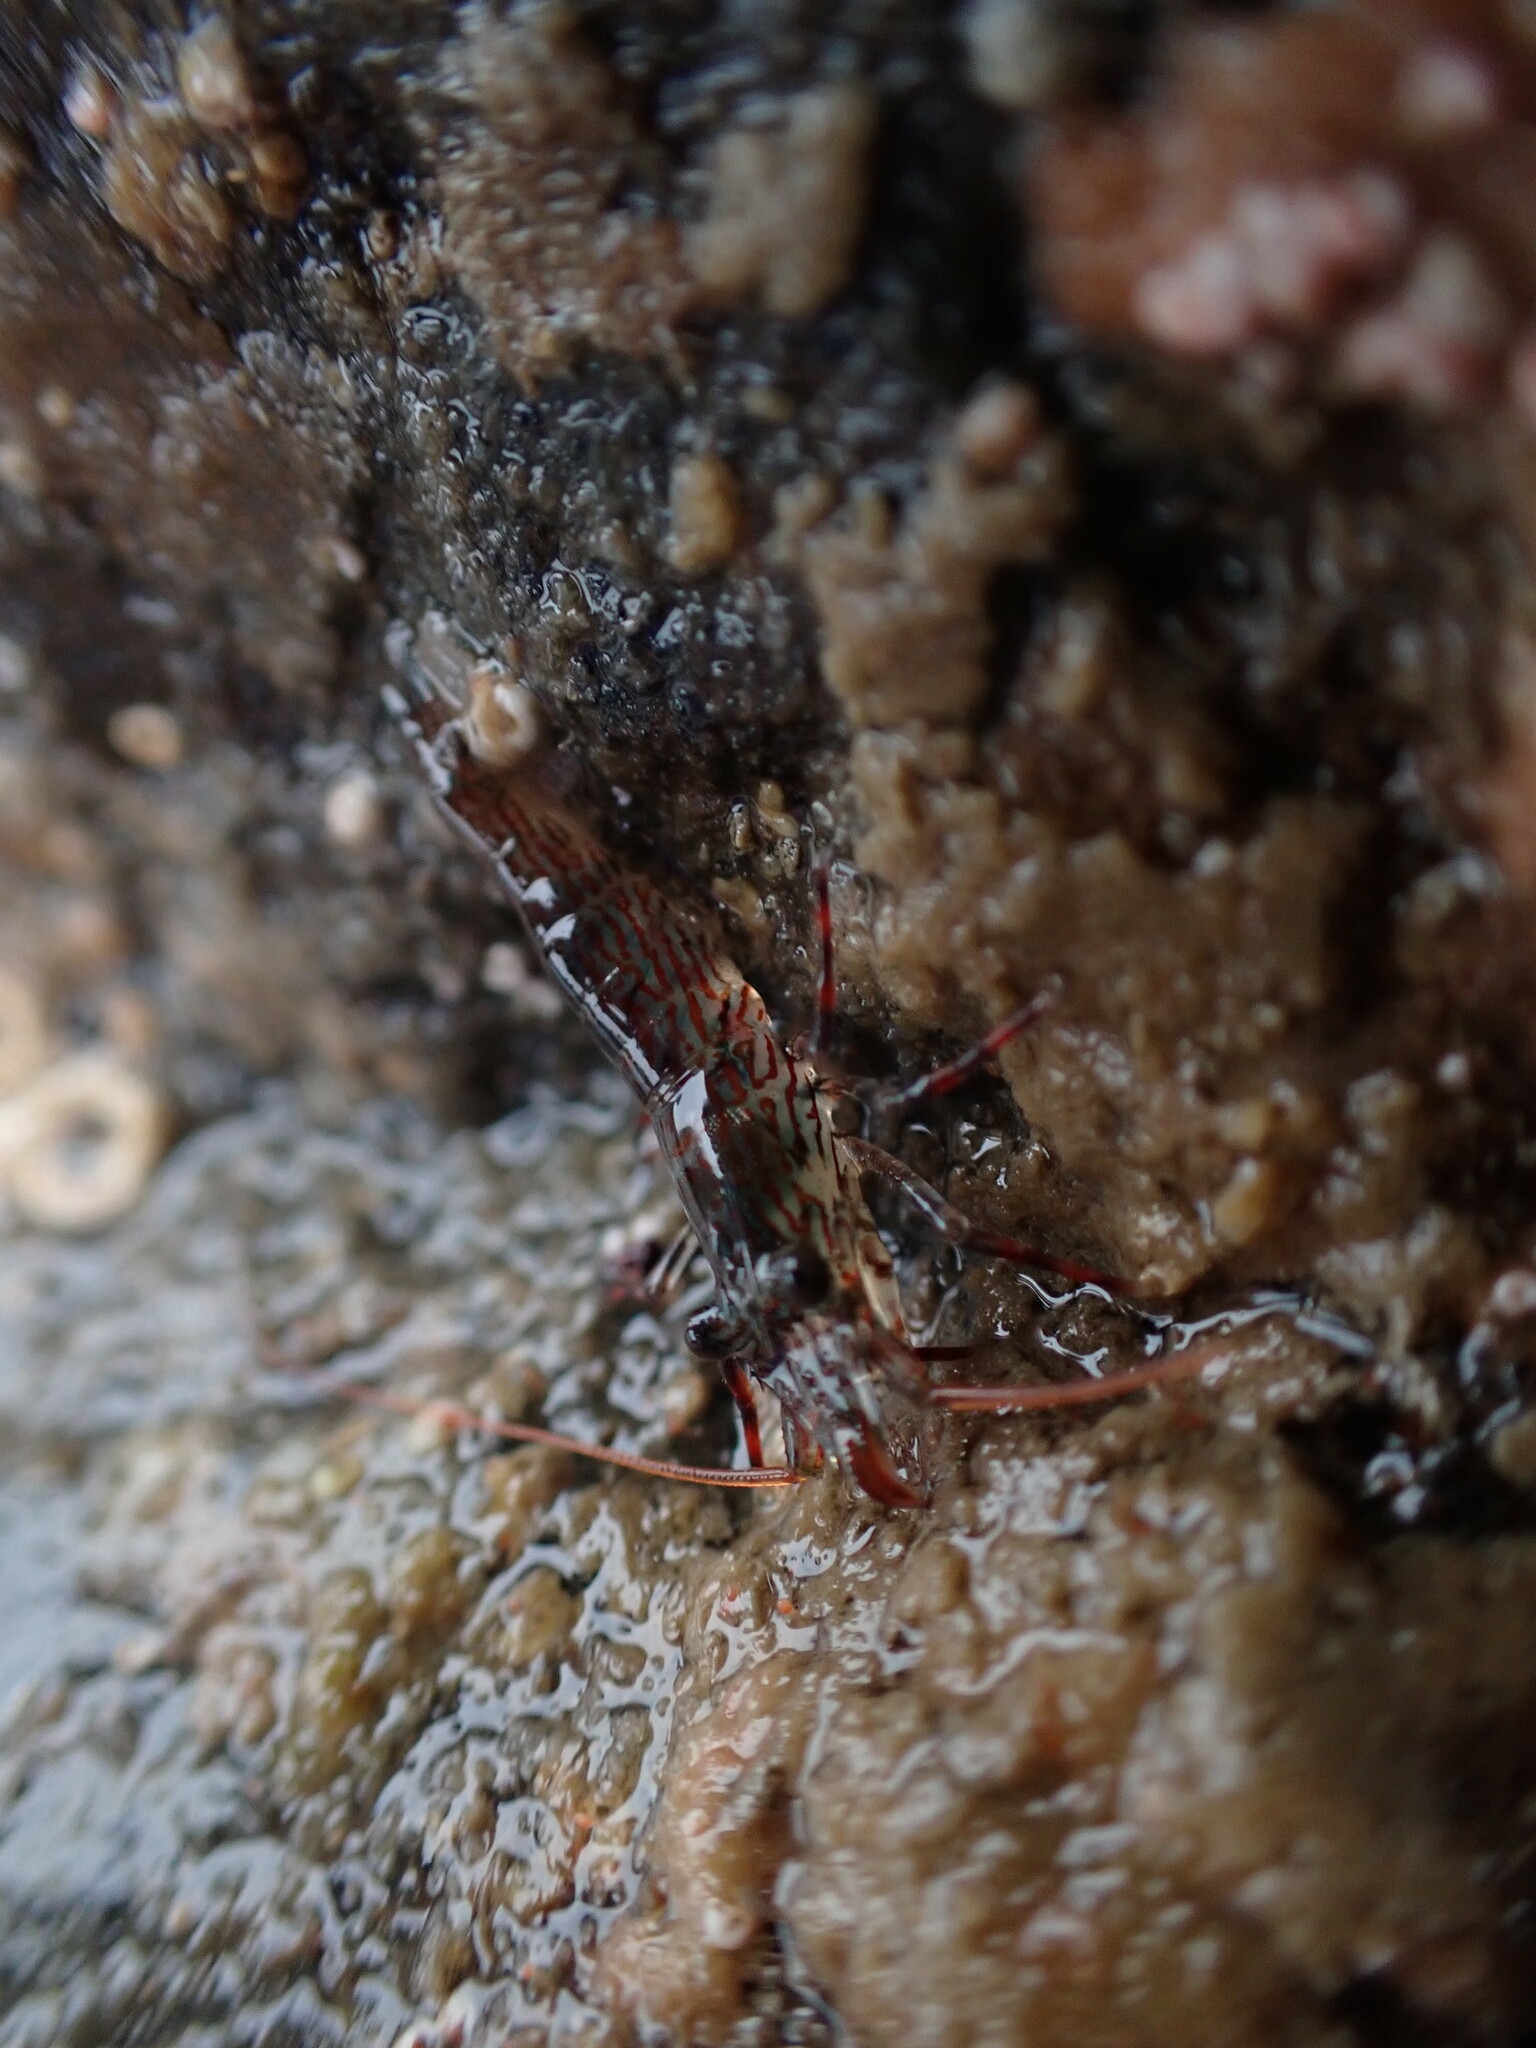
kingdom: Animalia
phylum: Arthropoda
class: Malacostraca
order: Decapoda
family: Hippolytidae
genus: Alope
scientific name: Alope spinifrons
